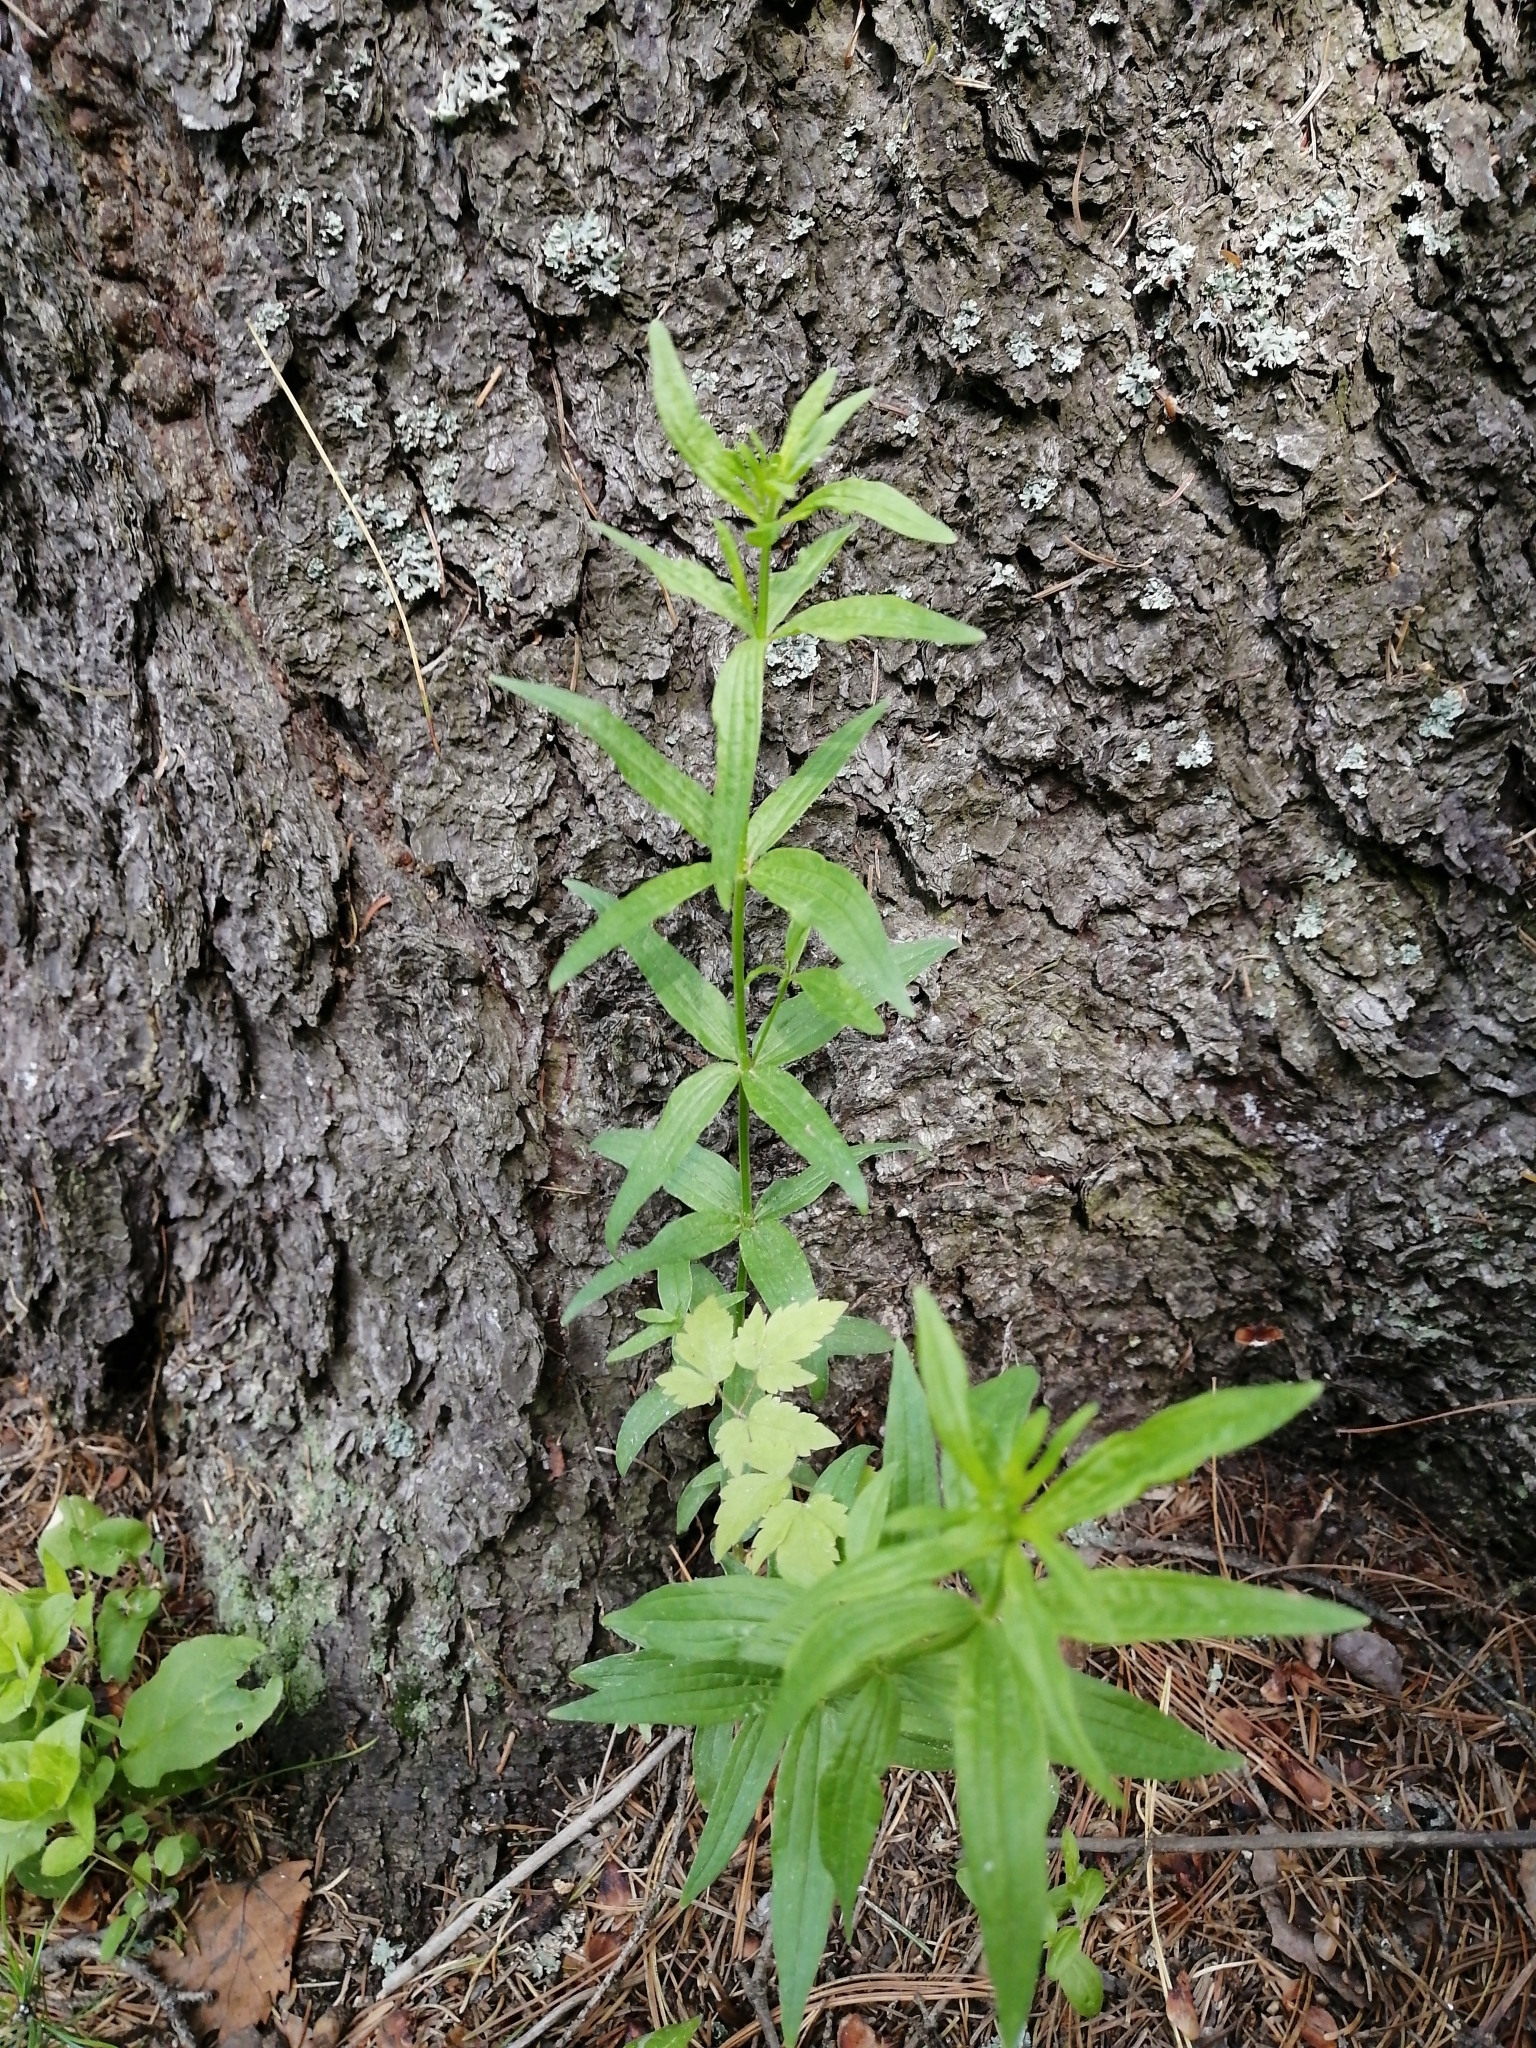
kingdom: Plantae
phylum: Tracheophyta
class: Magnoliopsida
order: Gentianales
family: Rubiaceae
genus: Galium
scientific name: Galium boreale
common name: Northern bedstraw
